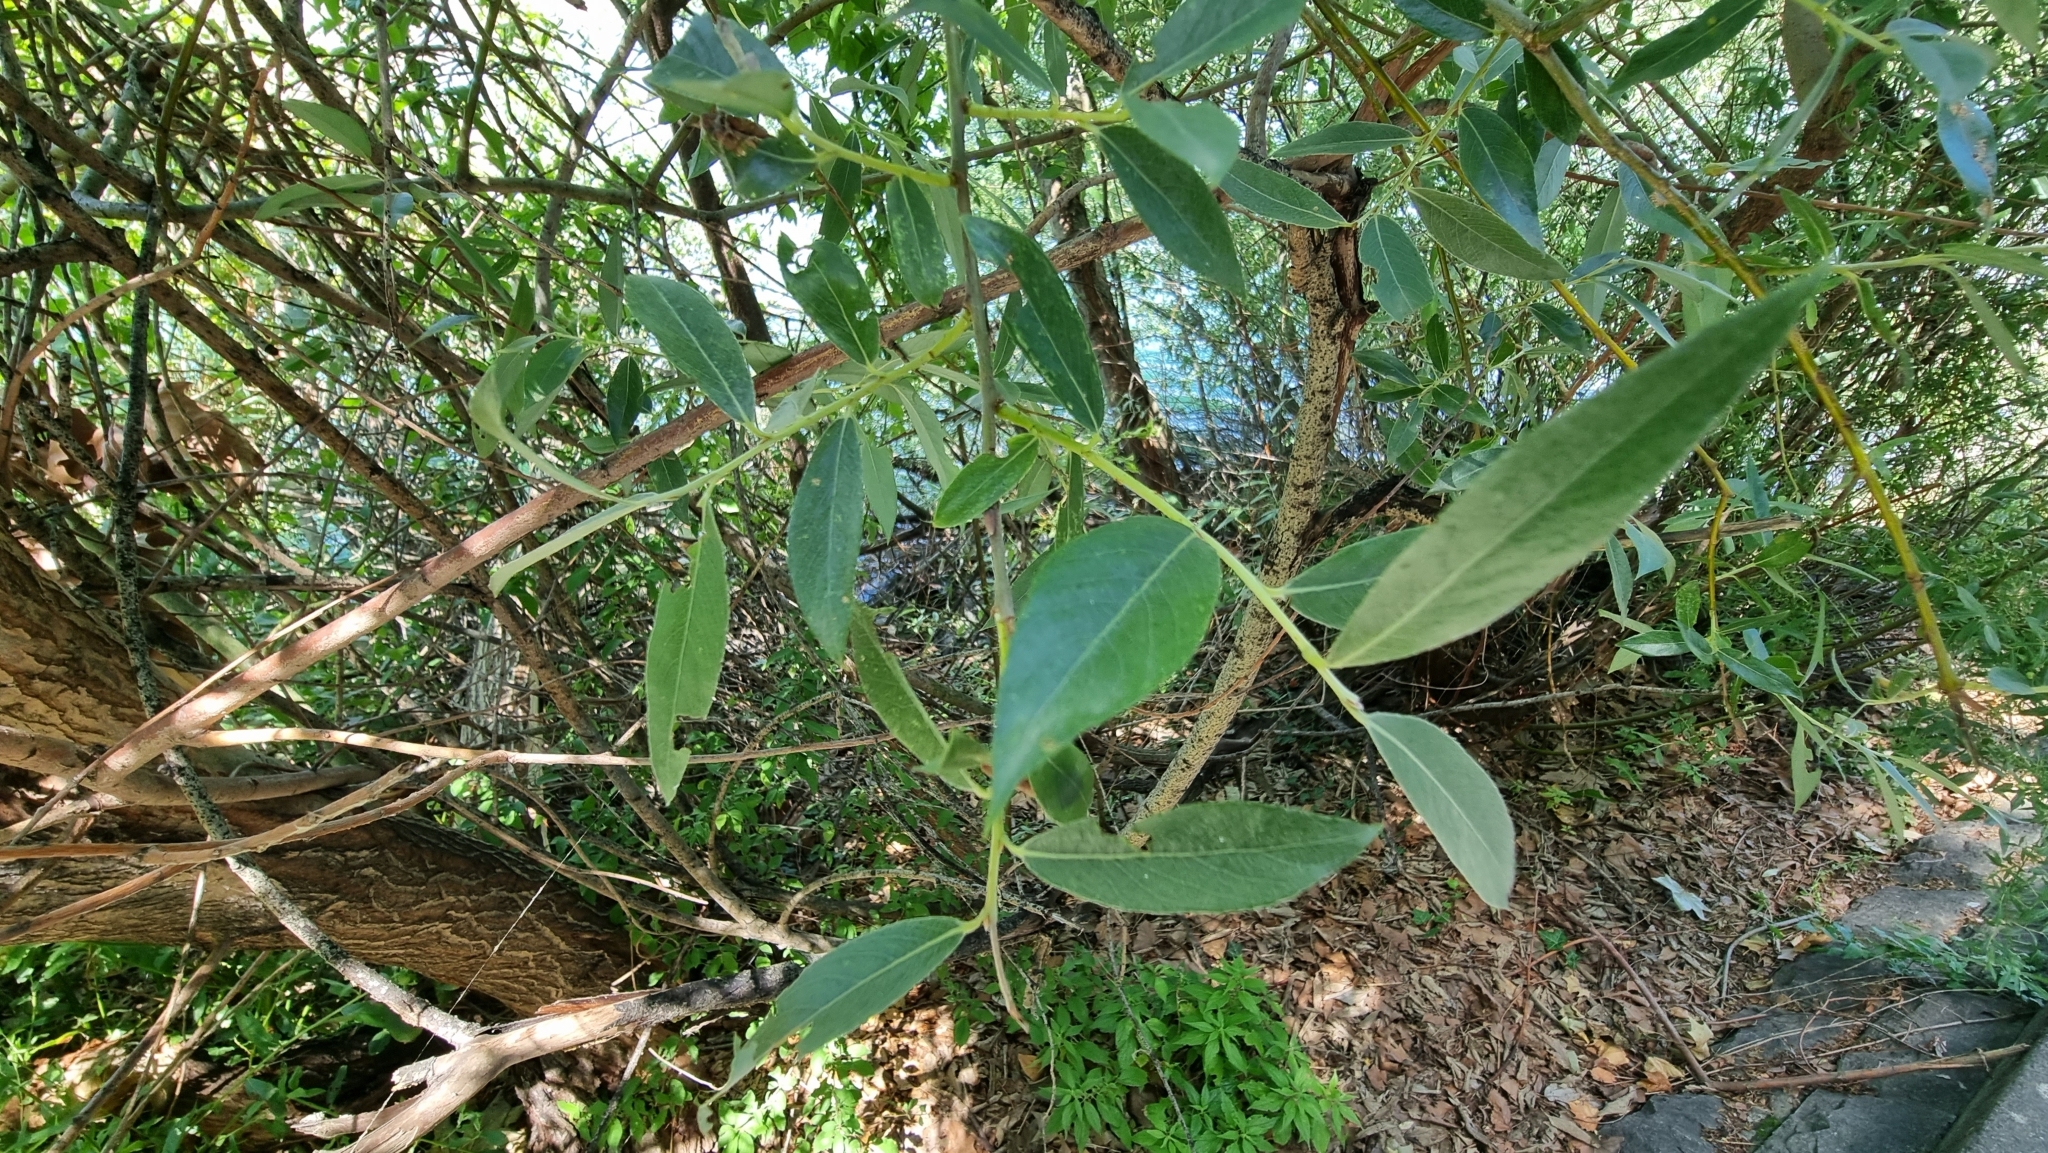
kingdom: Plantae
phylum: Tracheophyta
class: Magnoliopsida
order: Fabales
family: Fabaceae
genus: Gleditsia
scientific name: Gleditsia triacanthos
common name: Common honeylocust
